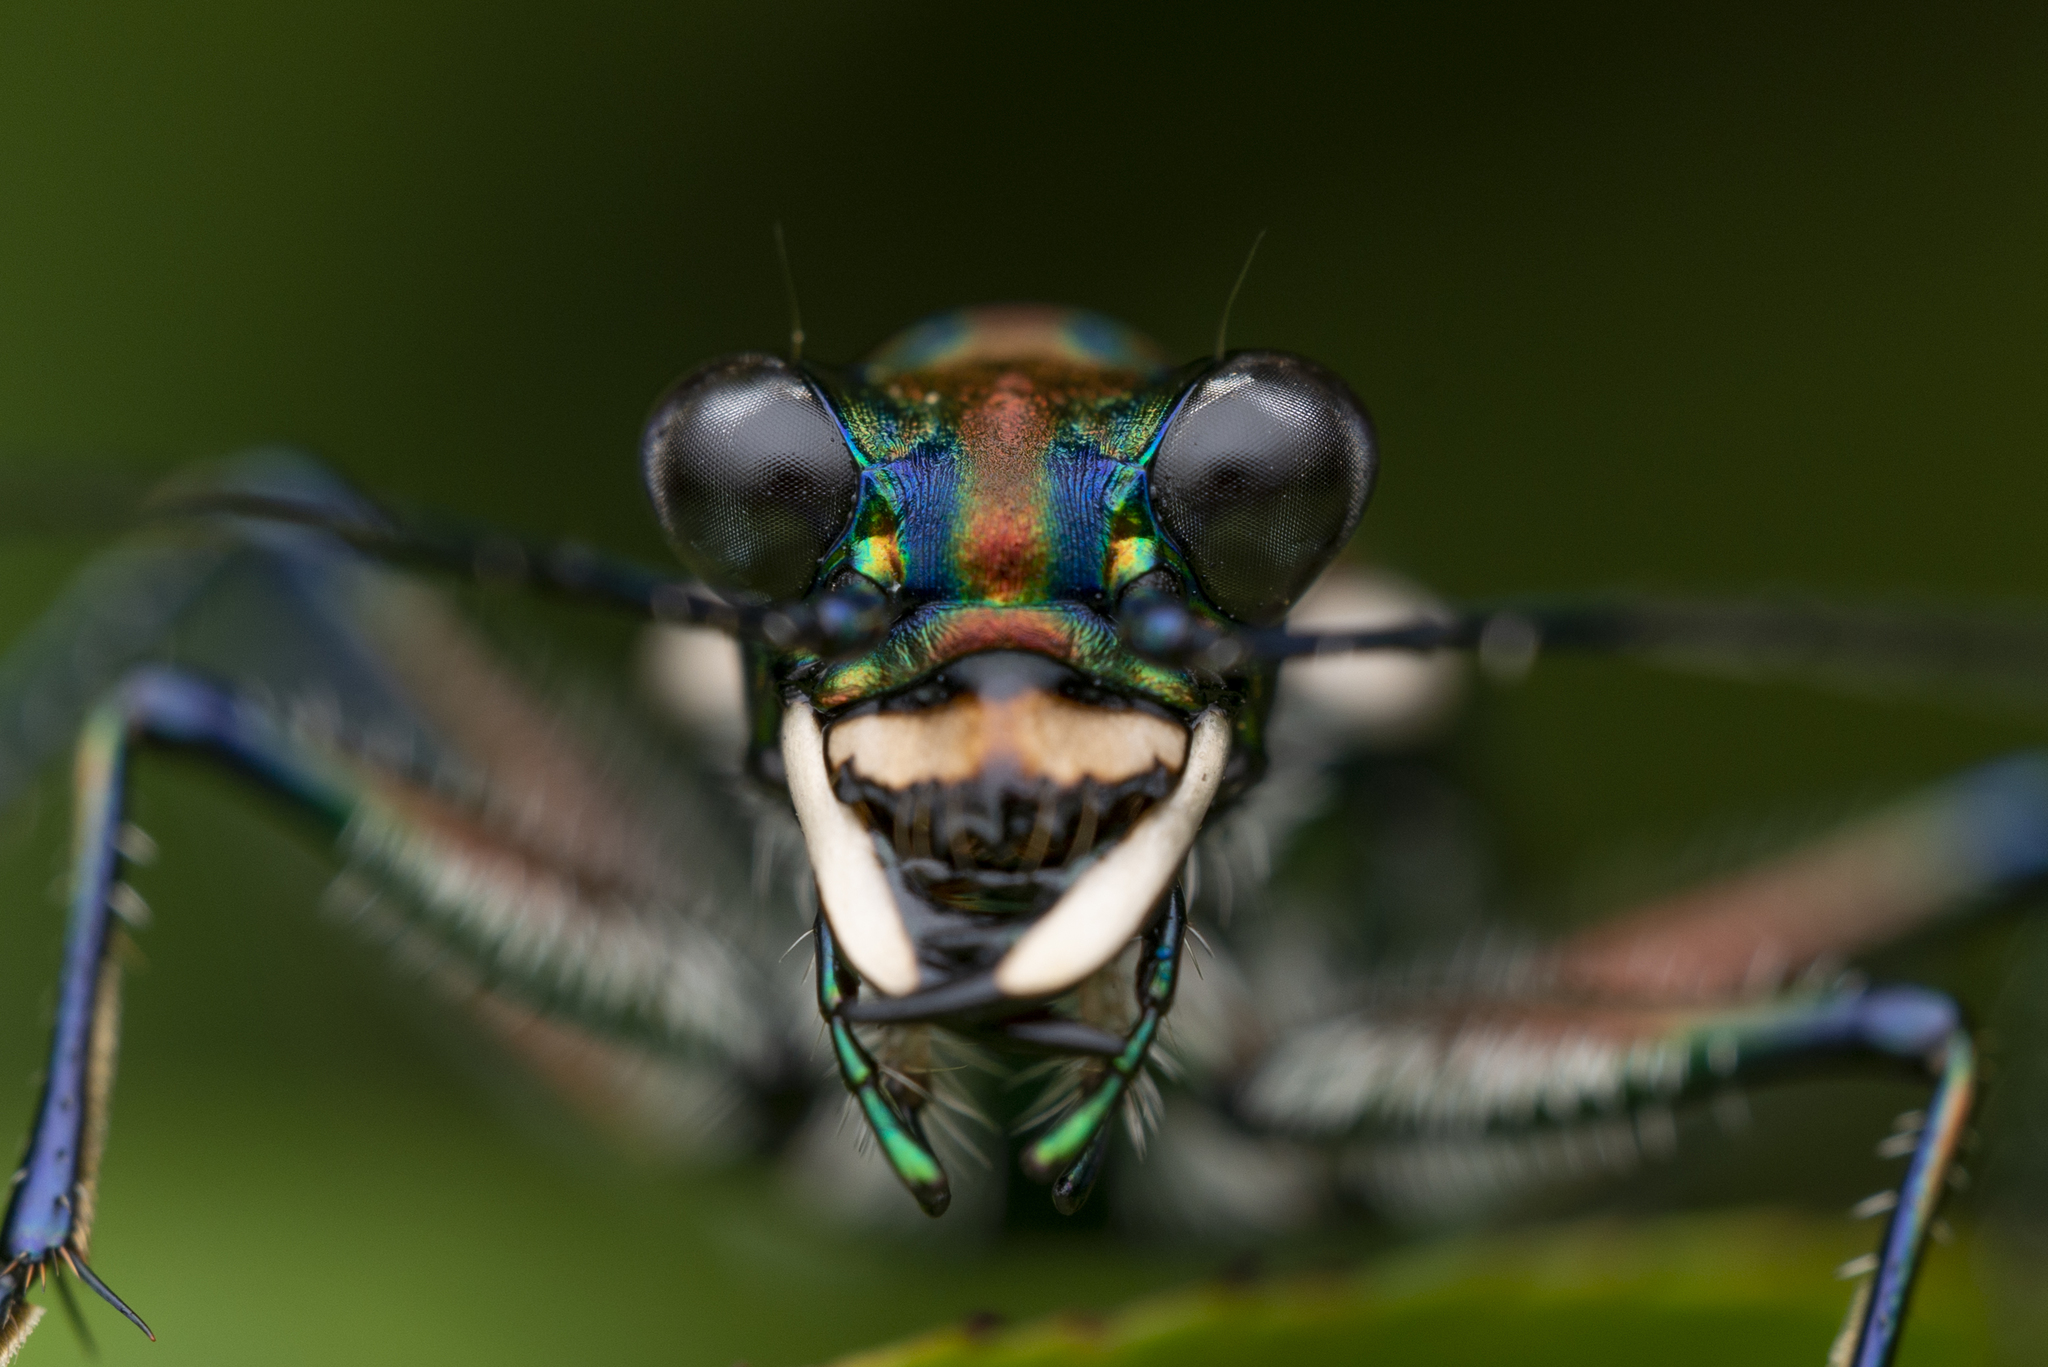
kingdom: Animalia
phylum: Arthropoda
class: Insecta
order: Coleoptera
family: Carabidae
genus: Cicindela
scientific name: Cicindela aurulenta
